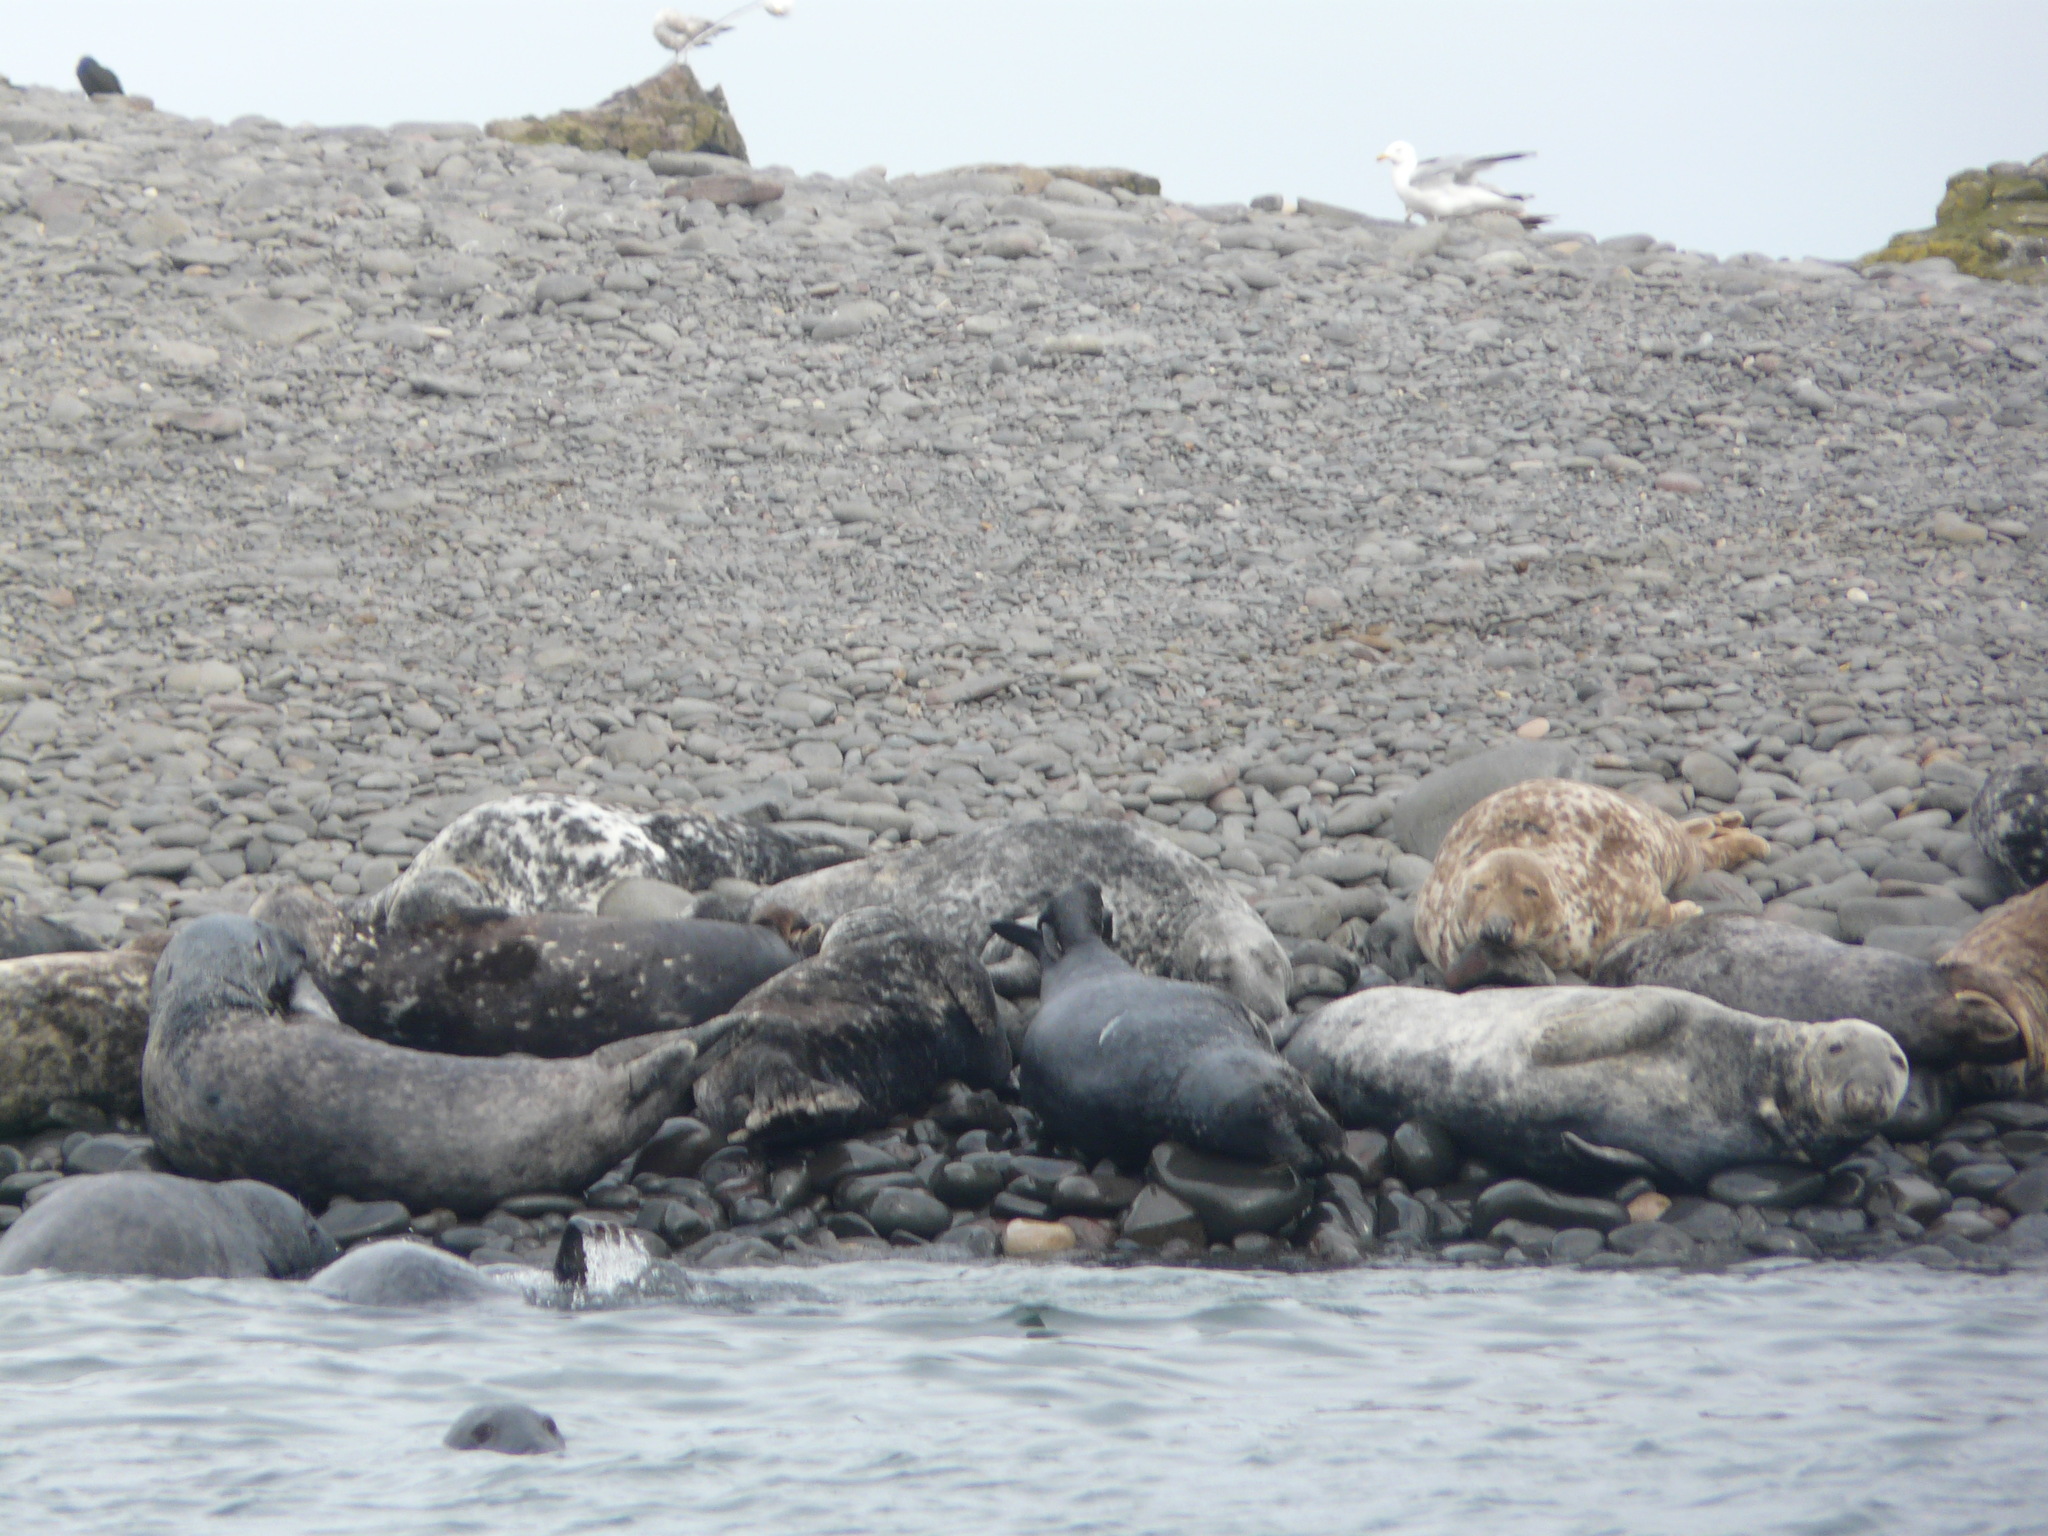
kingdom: Animalia
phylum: Chordata
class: Mammalia
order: Carnivora
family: Phocidae
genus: Halichoerus
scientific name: Halichoerus grypus
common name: Grey seal
